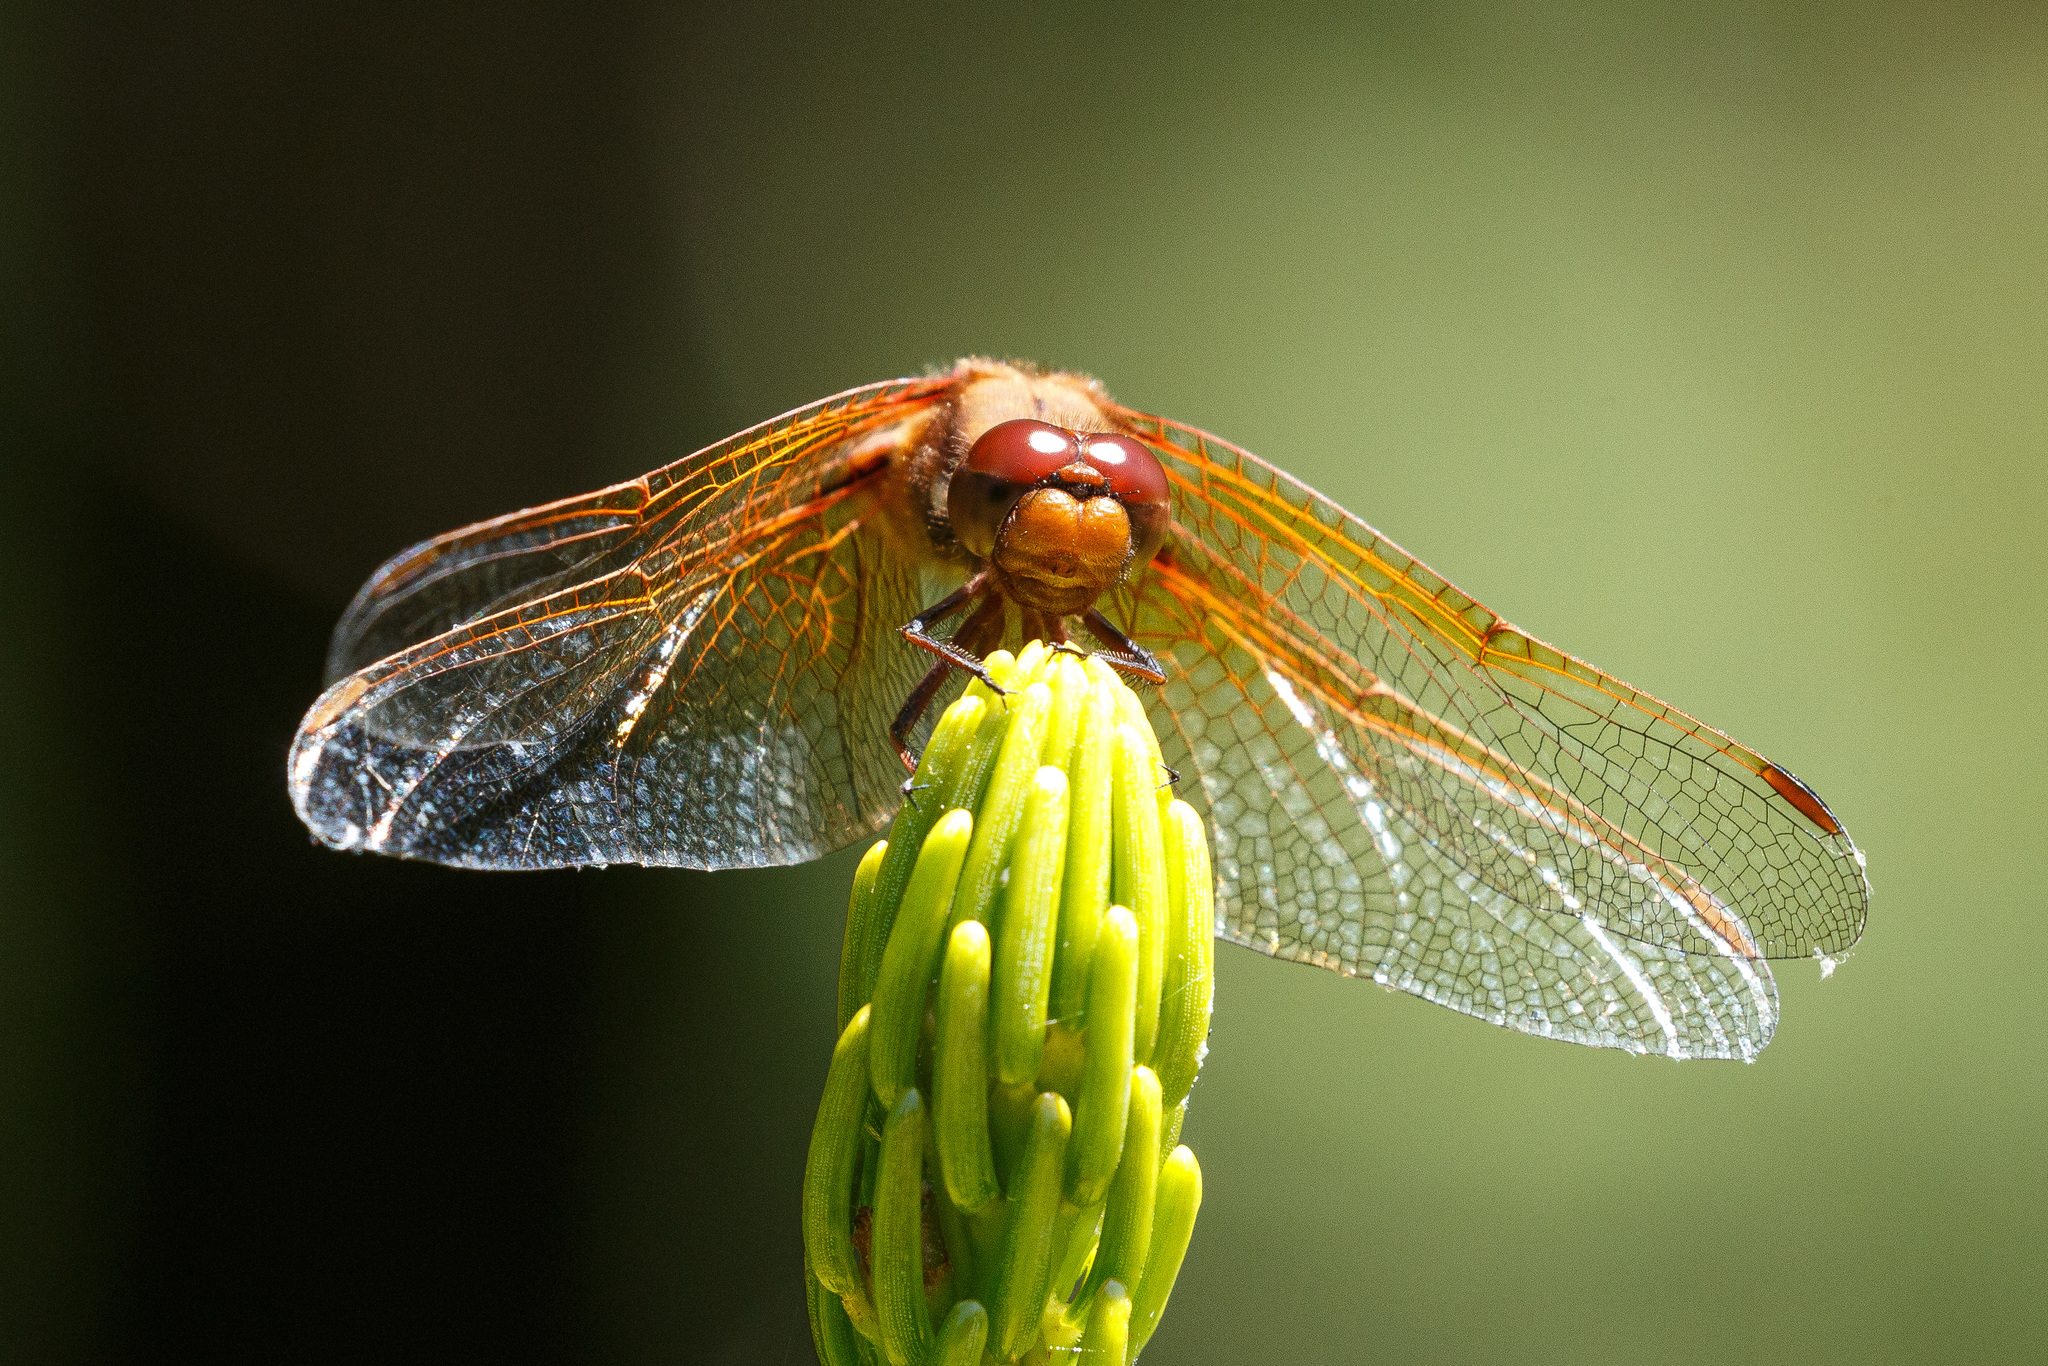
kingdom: Animalia
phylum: Arthropoda
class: Insecta
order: Odonata
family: Libellulidae
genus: Sympetrum
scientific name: Sympetrum illotum
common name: Cardinal meadowhawk
